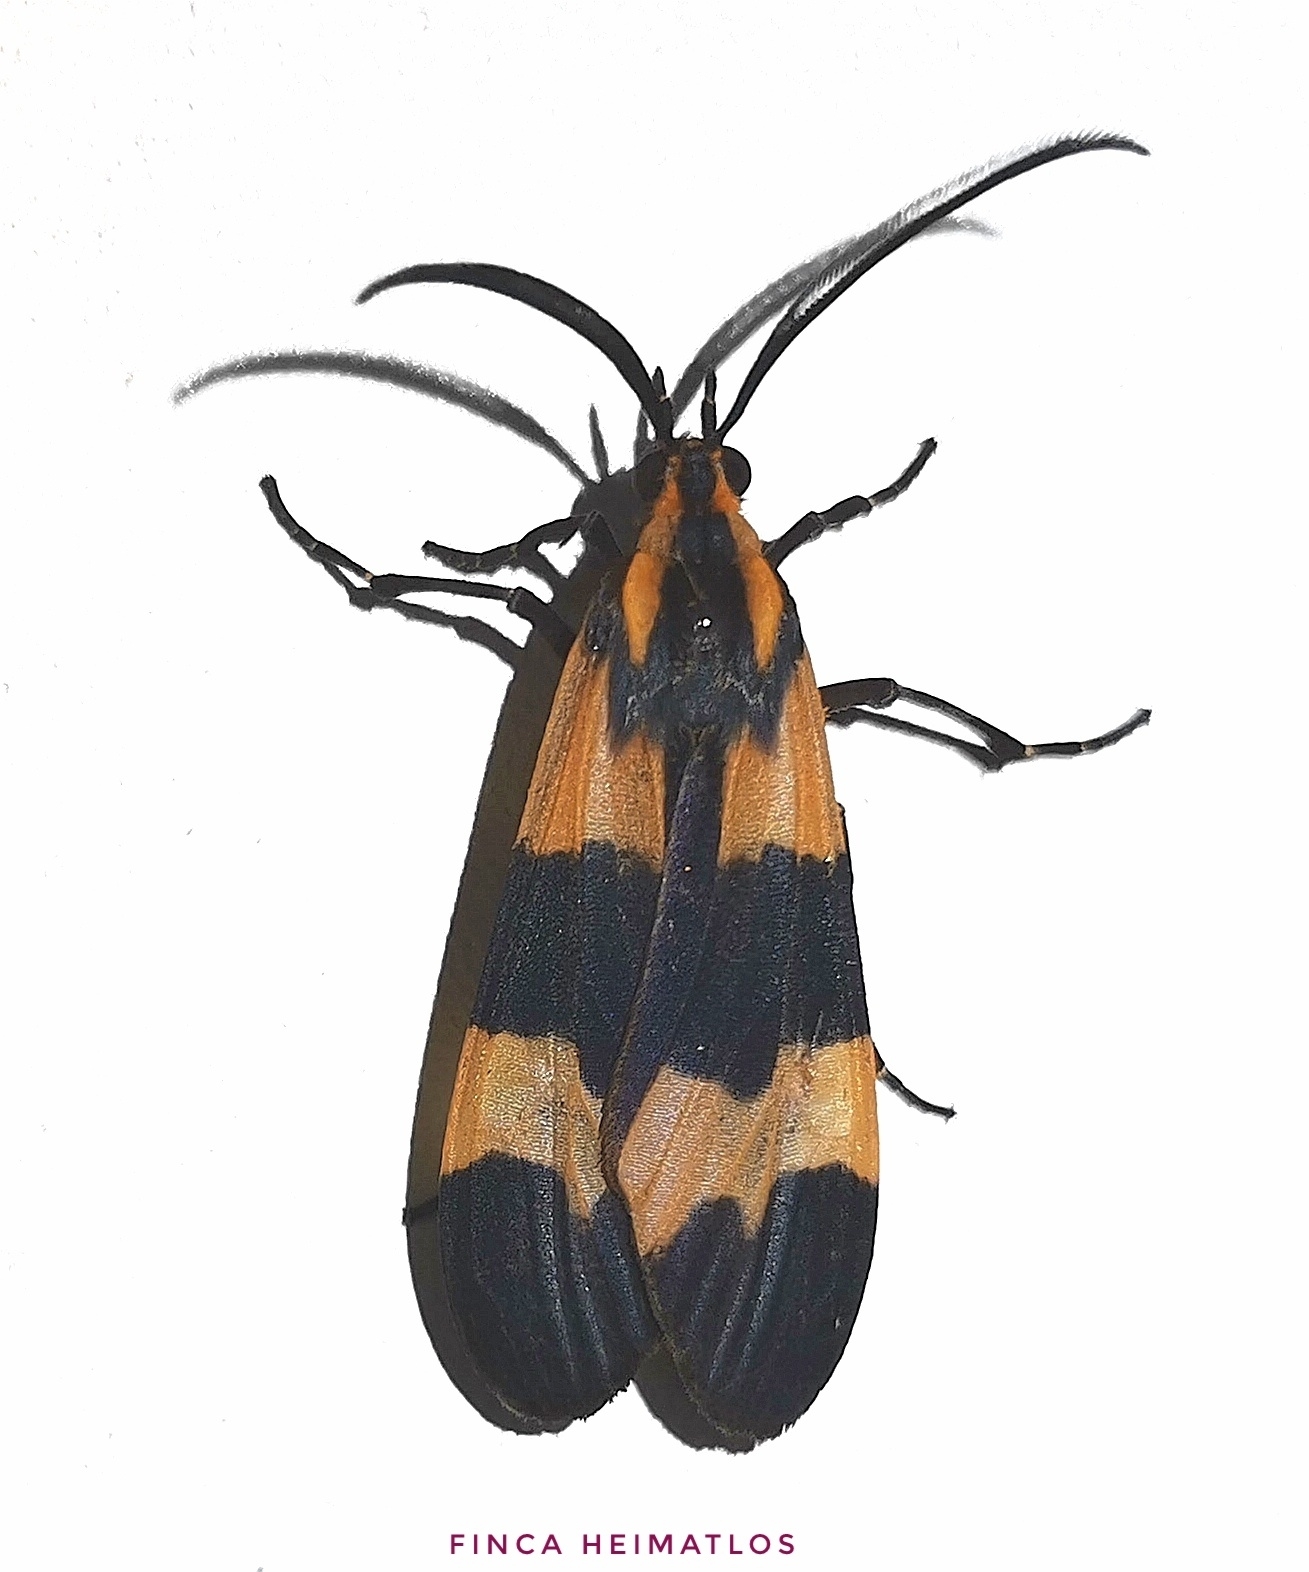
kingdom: Animalia
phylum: Arthropoda
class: Insecta
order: Lepidoptera
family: Erebidae
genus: Correbia
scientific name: Correbia obtusa
